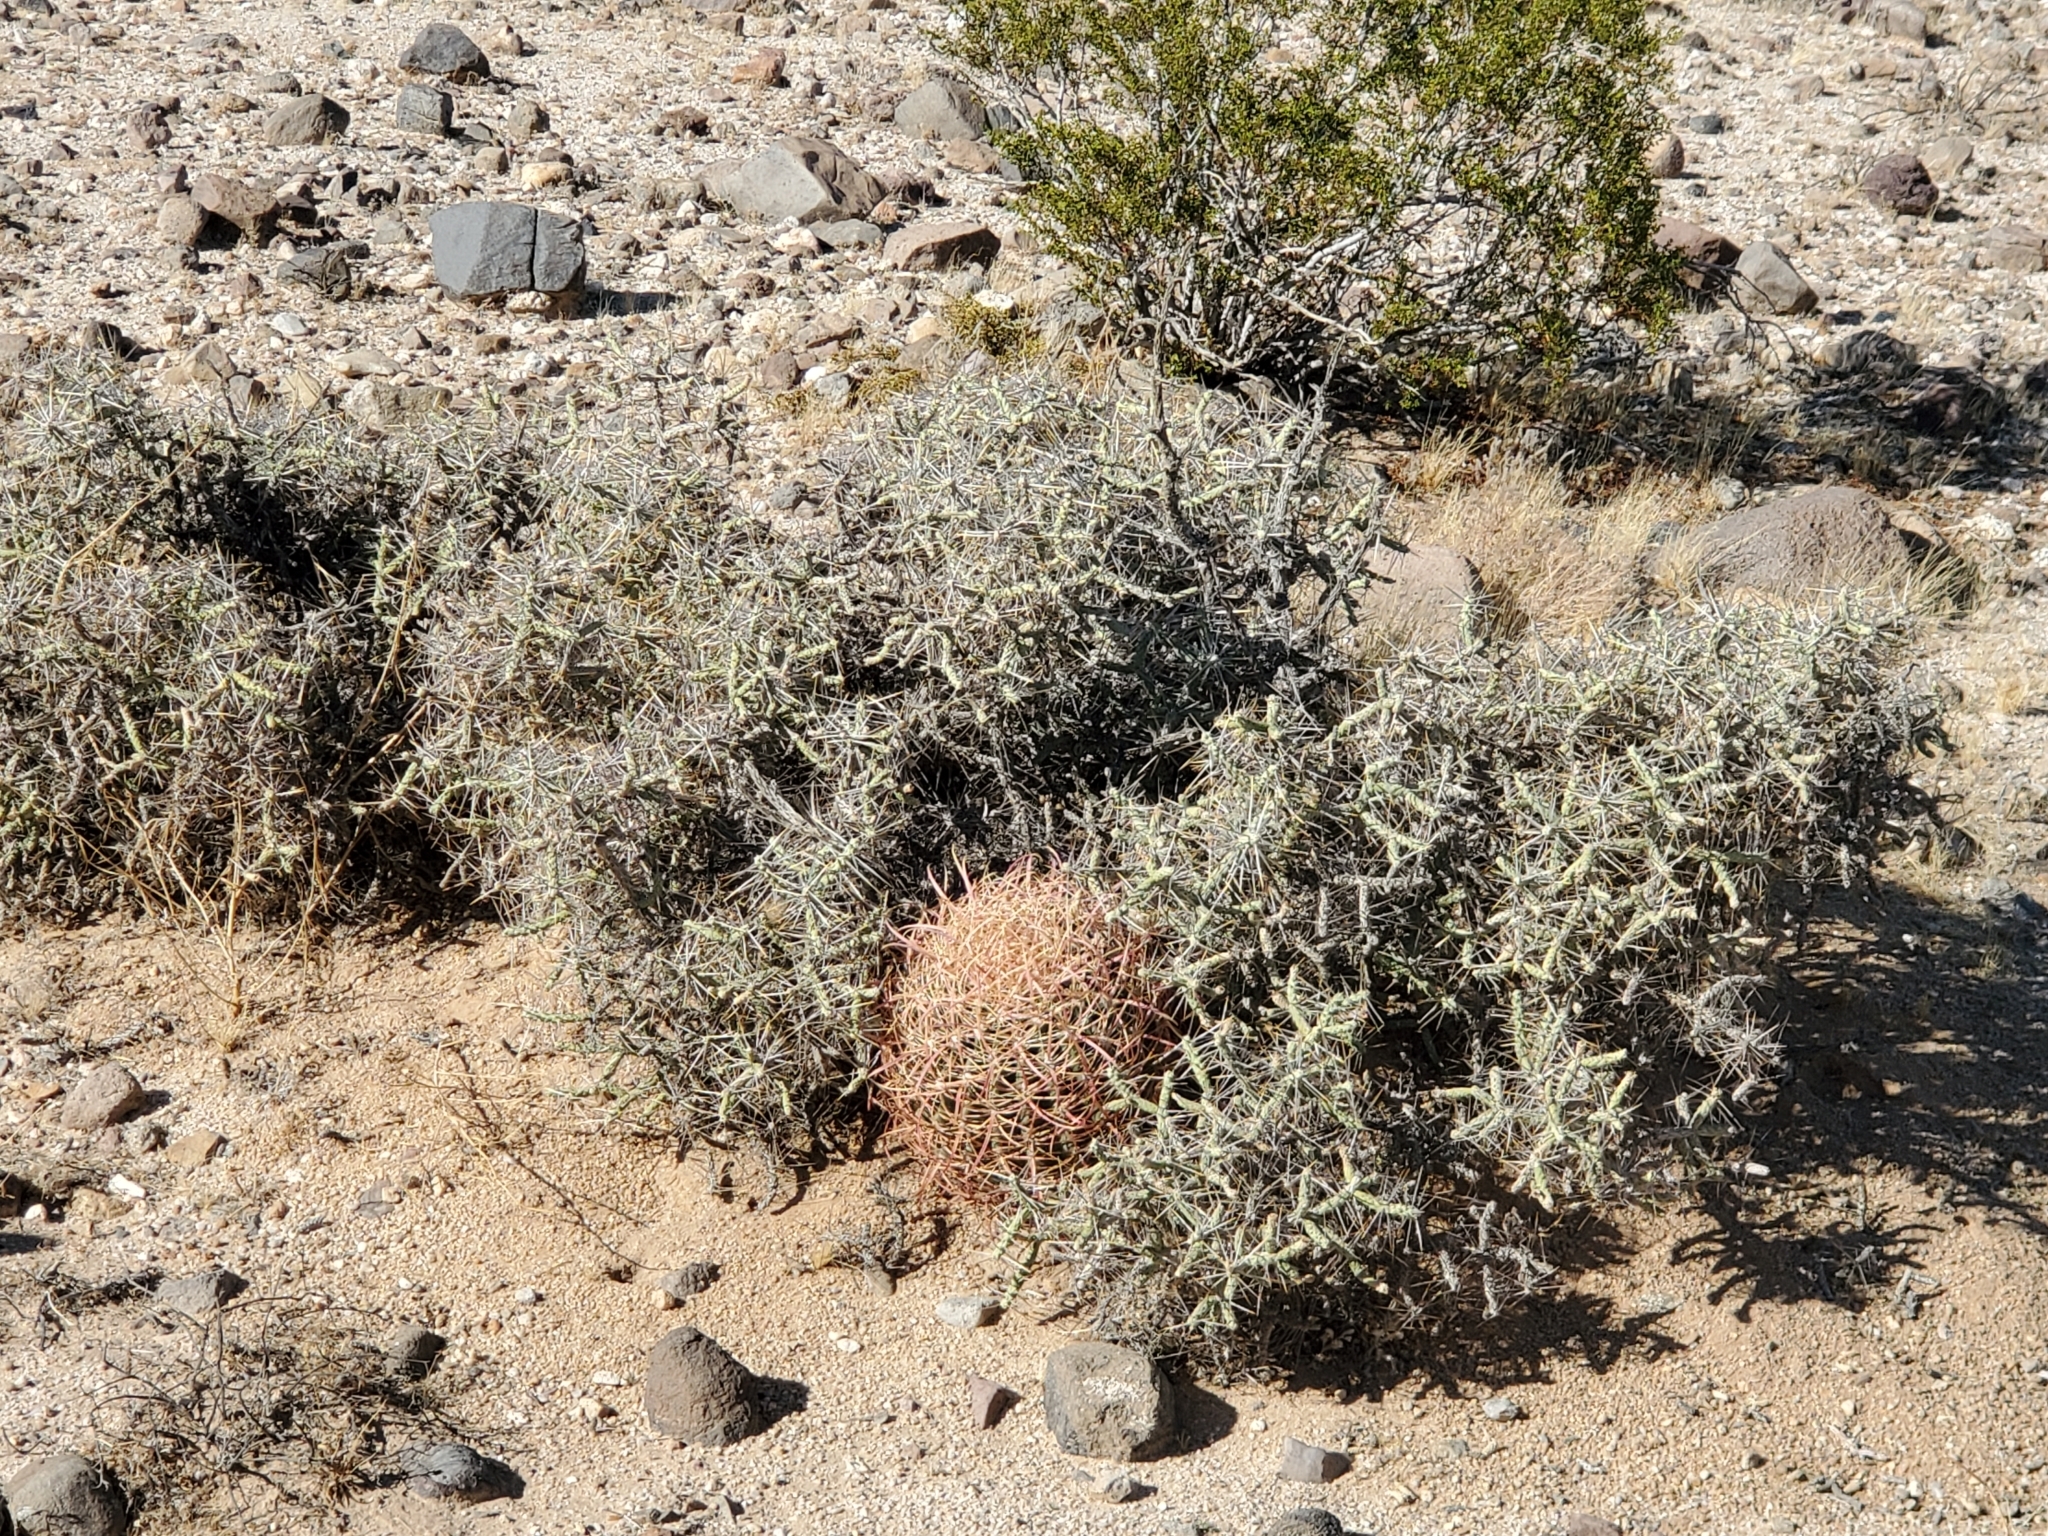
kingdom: Plantae
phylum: Tracheophyta
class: Magnoliopsida
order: Caryophyllales
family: Cactaceae
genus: Ferocactus
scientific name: Ferocactus cylindraceus
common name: California barrel cactus
